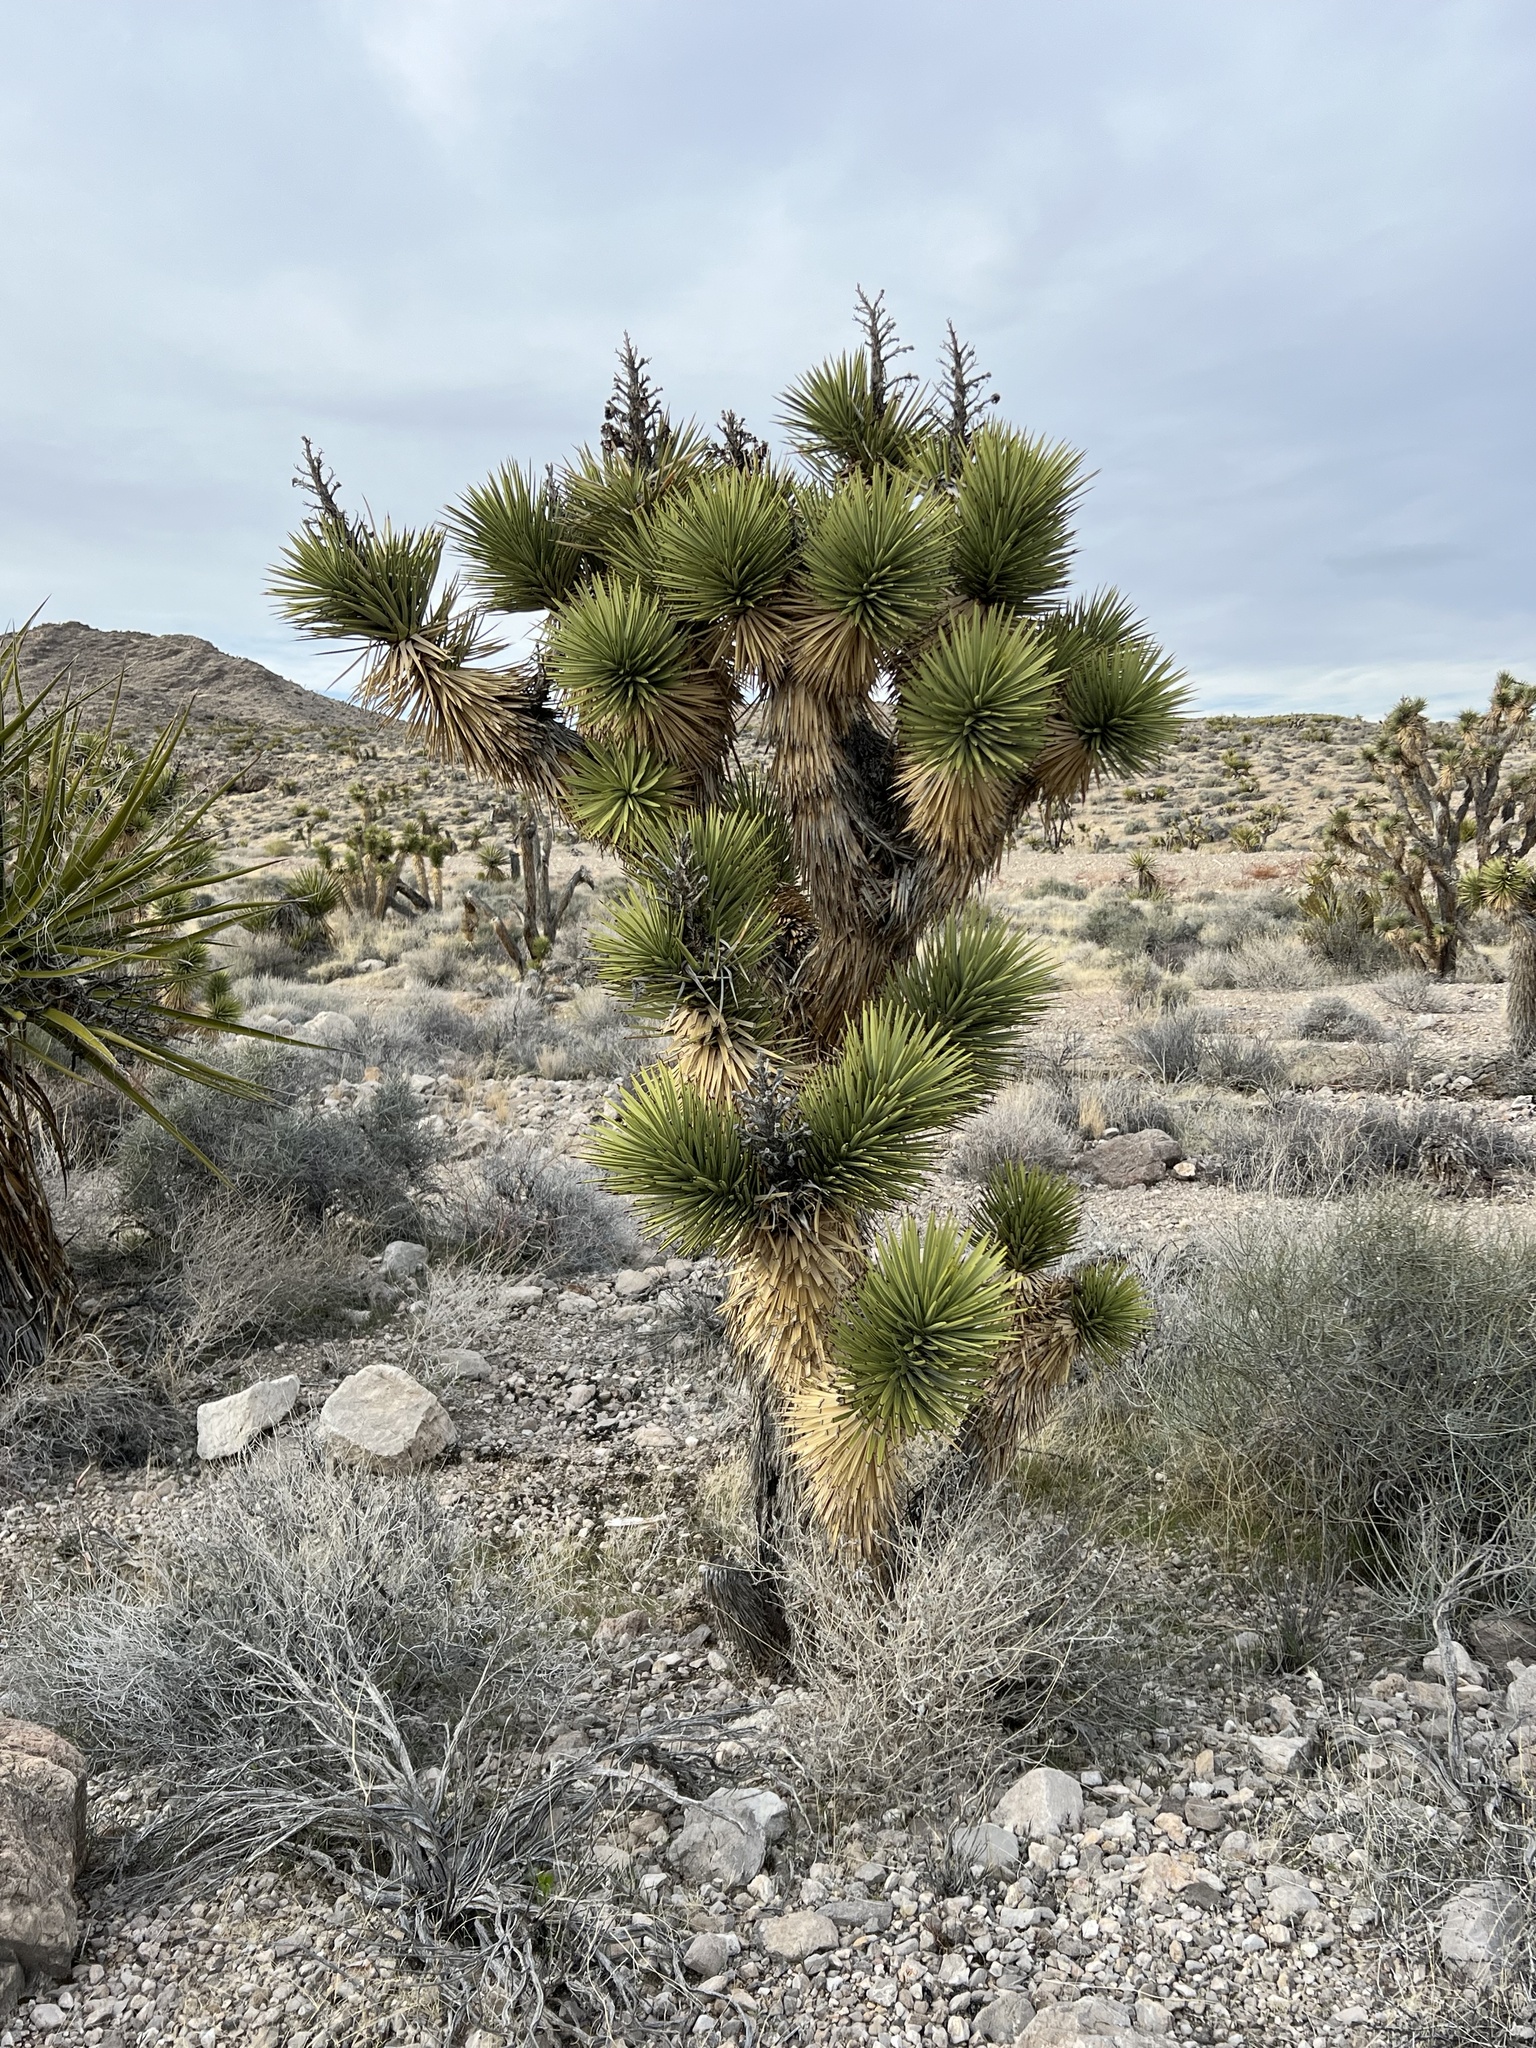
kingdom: Plantae
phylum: Tracheophyta
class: Liliopsida
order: Asparagales
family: Asparagaceae
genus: Yucca
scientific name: Yucca brevifolia
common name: Joshua tree
